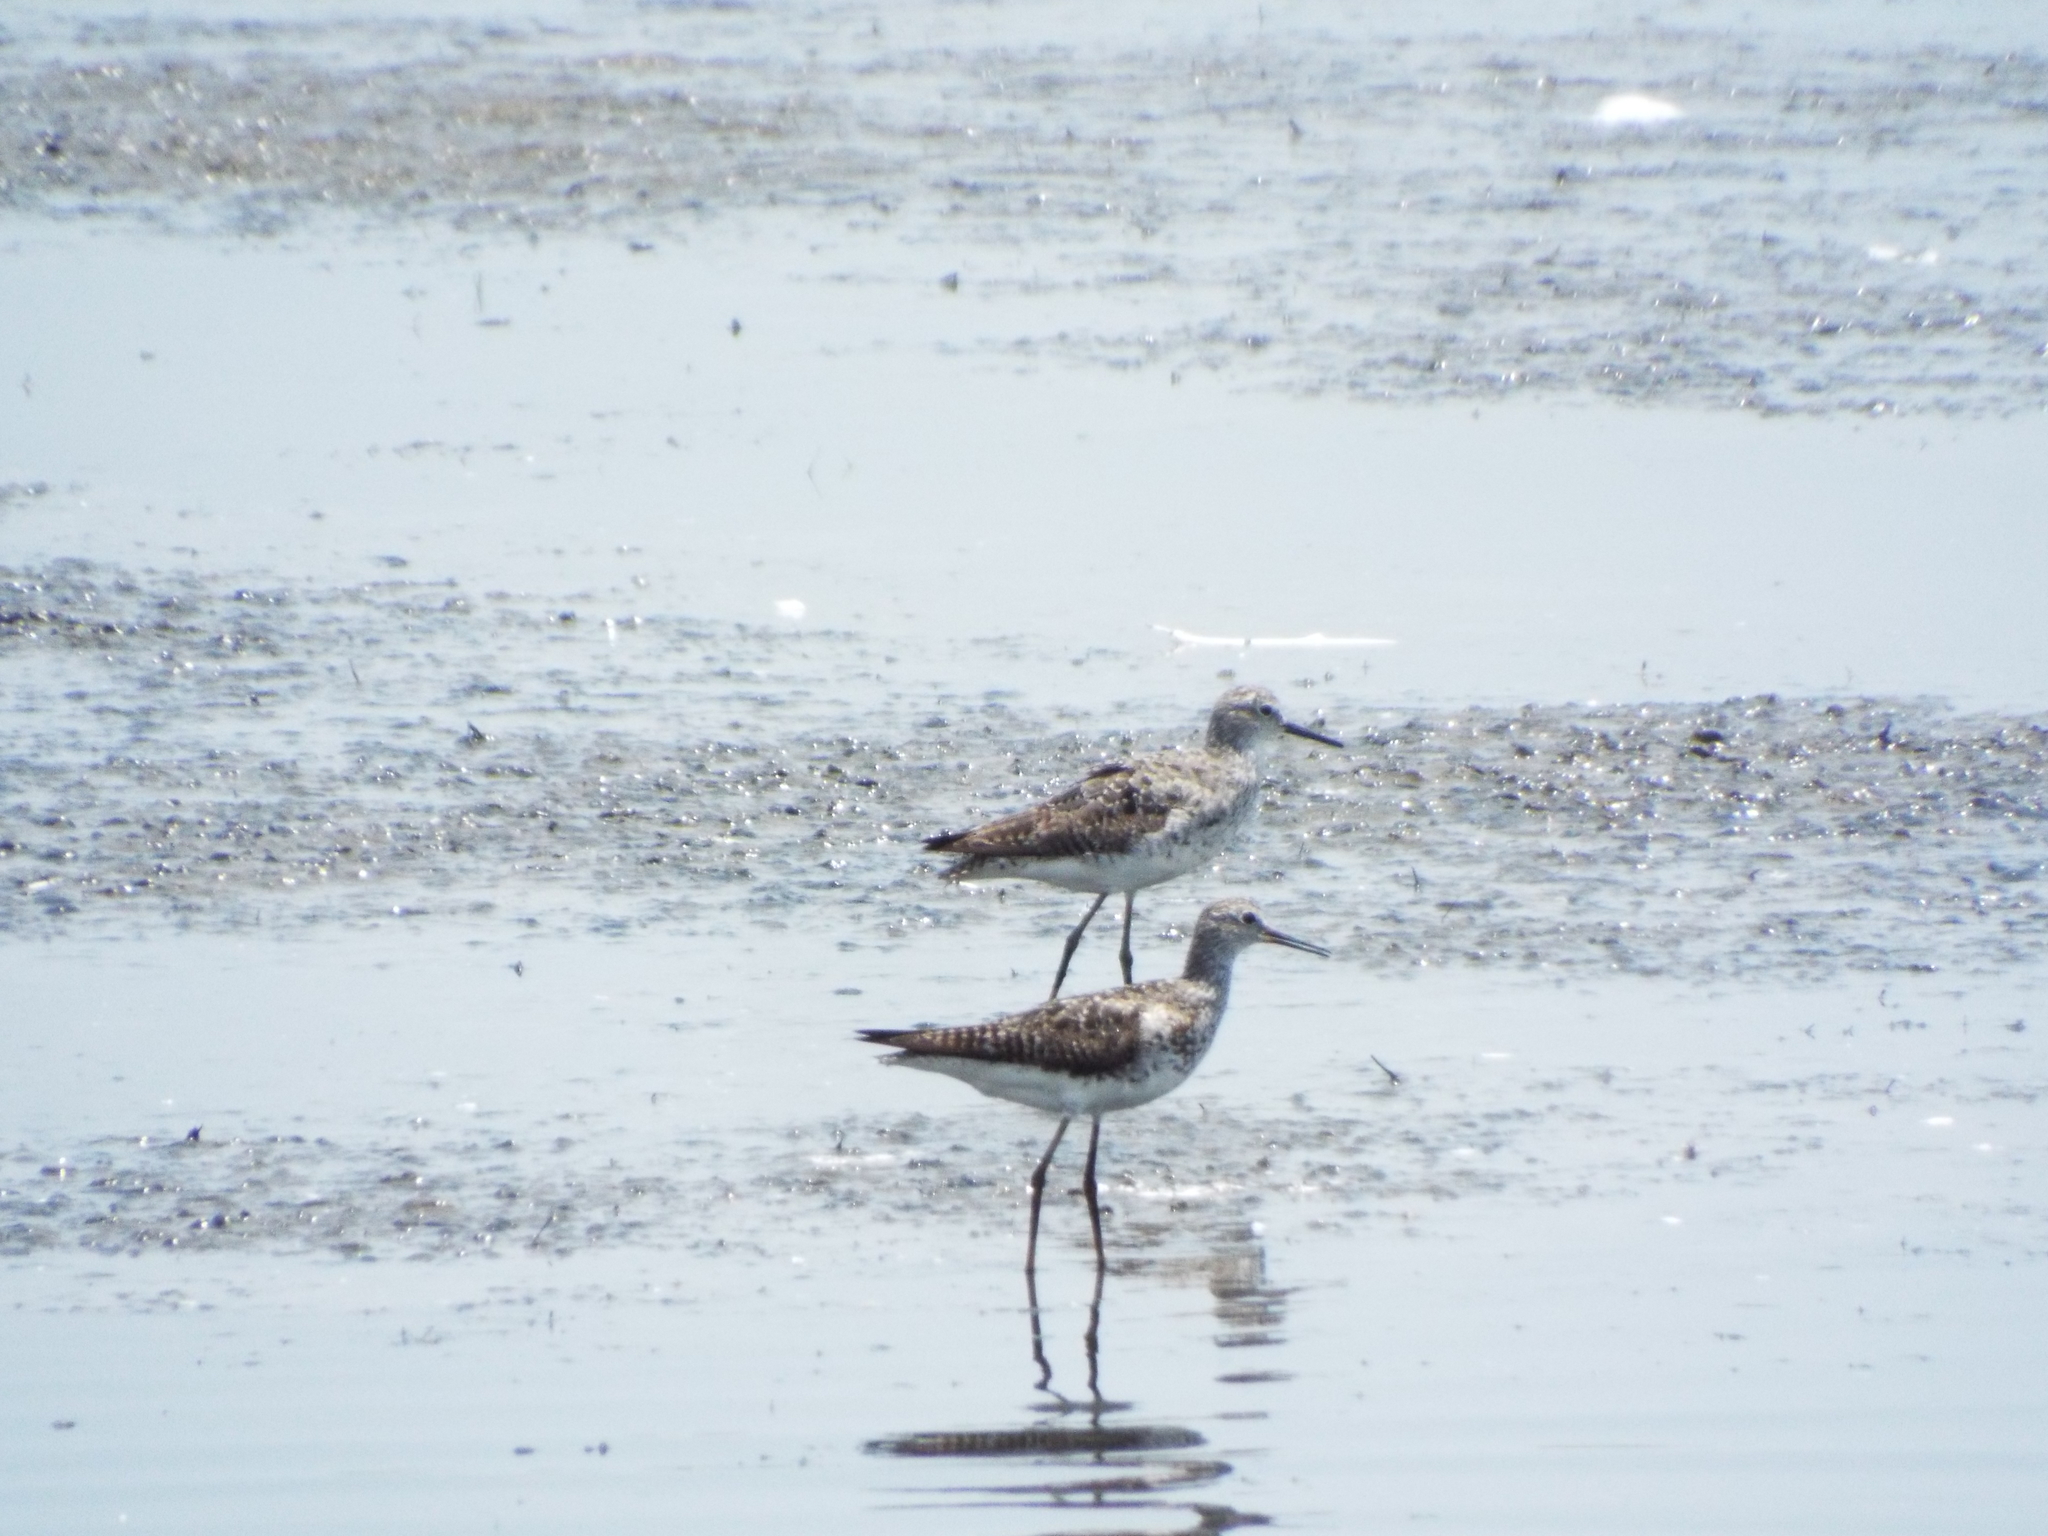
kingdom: Animalia
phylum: Chordata
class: Aves
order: Charadriiformes
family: Scolopacidae
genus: Tringa
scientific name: Tringa flavipes
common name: Lesser yellowlegs
